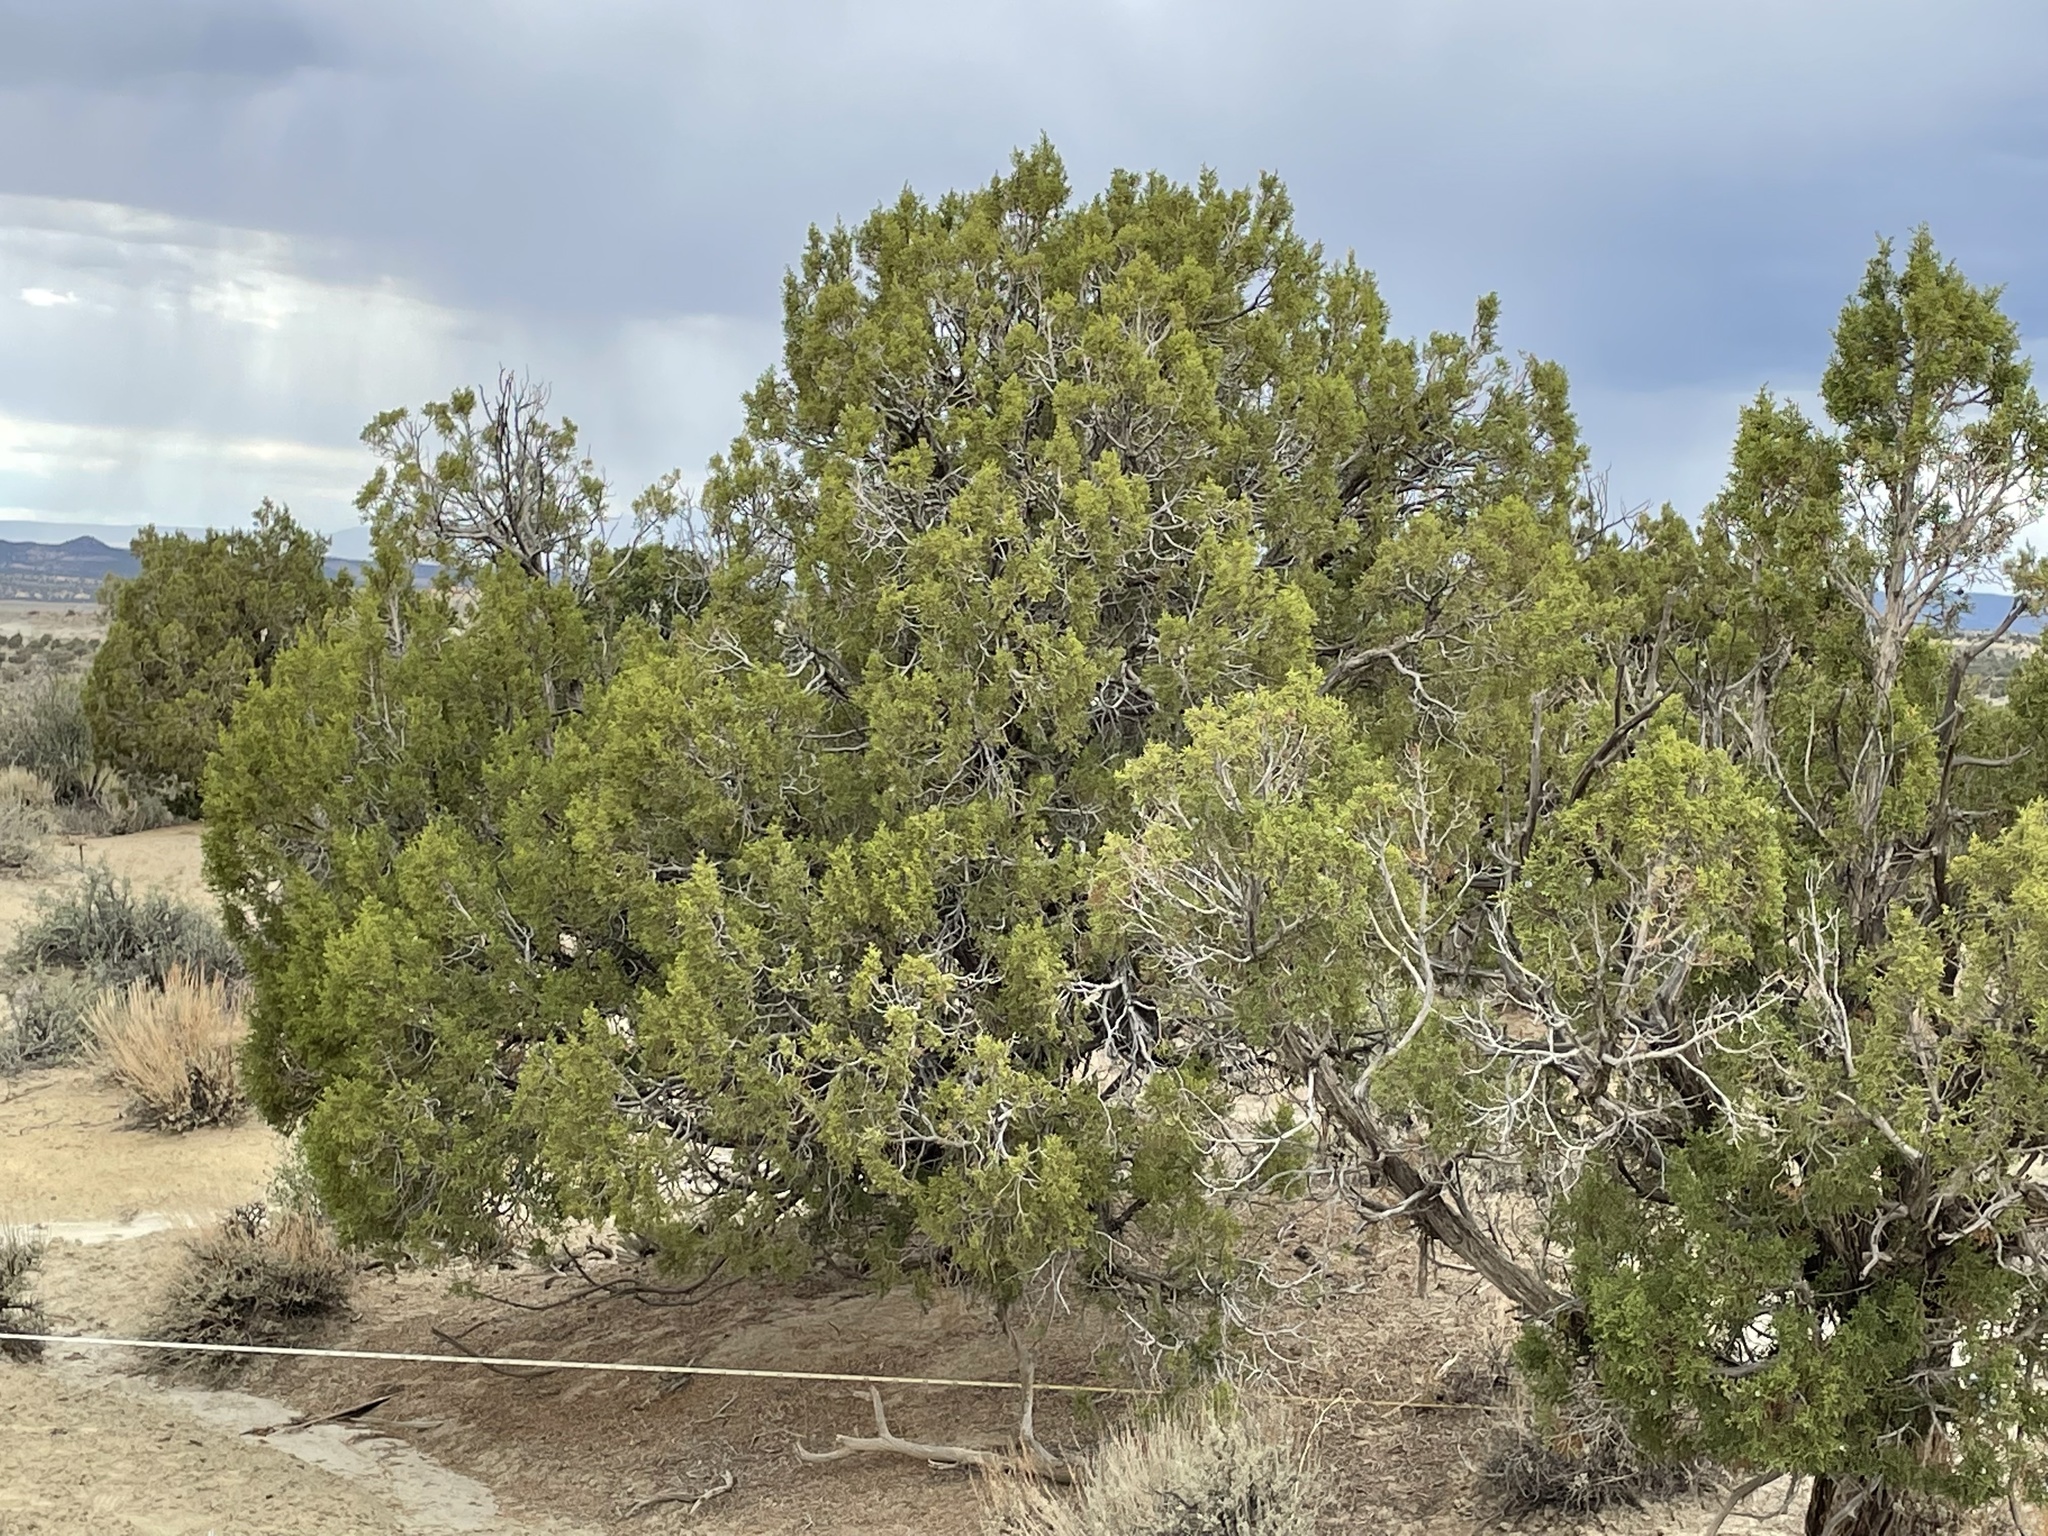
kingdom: Plantae
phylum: Tracheophyta
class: Pinopsida
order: Pinales
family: Cupressaceae
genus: Juniperus
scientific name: Juniperus osteosperma
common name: Utah juniper
